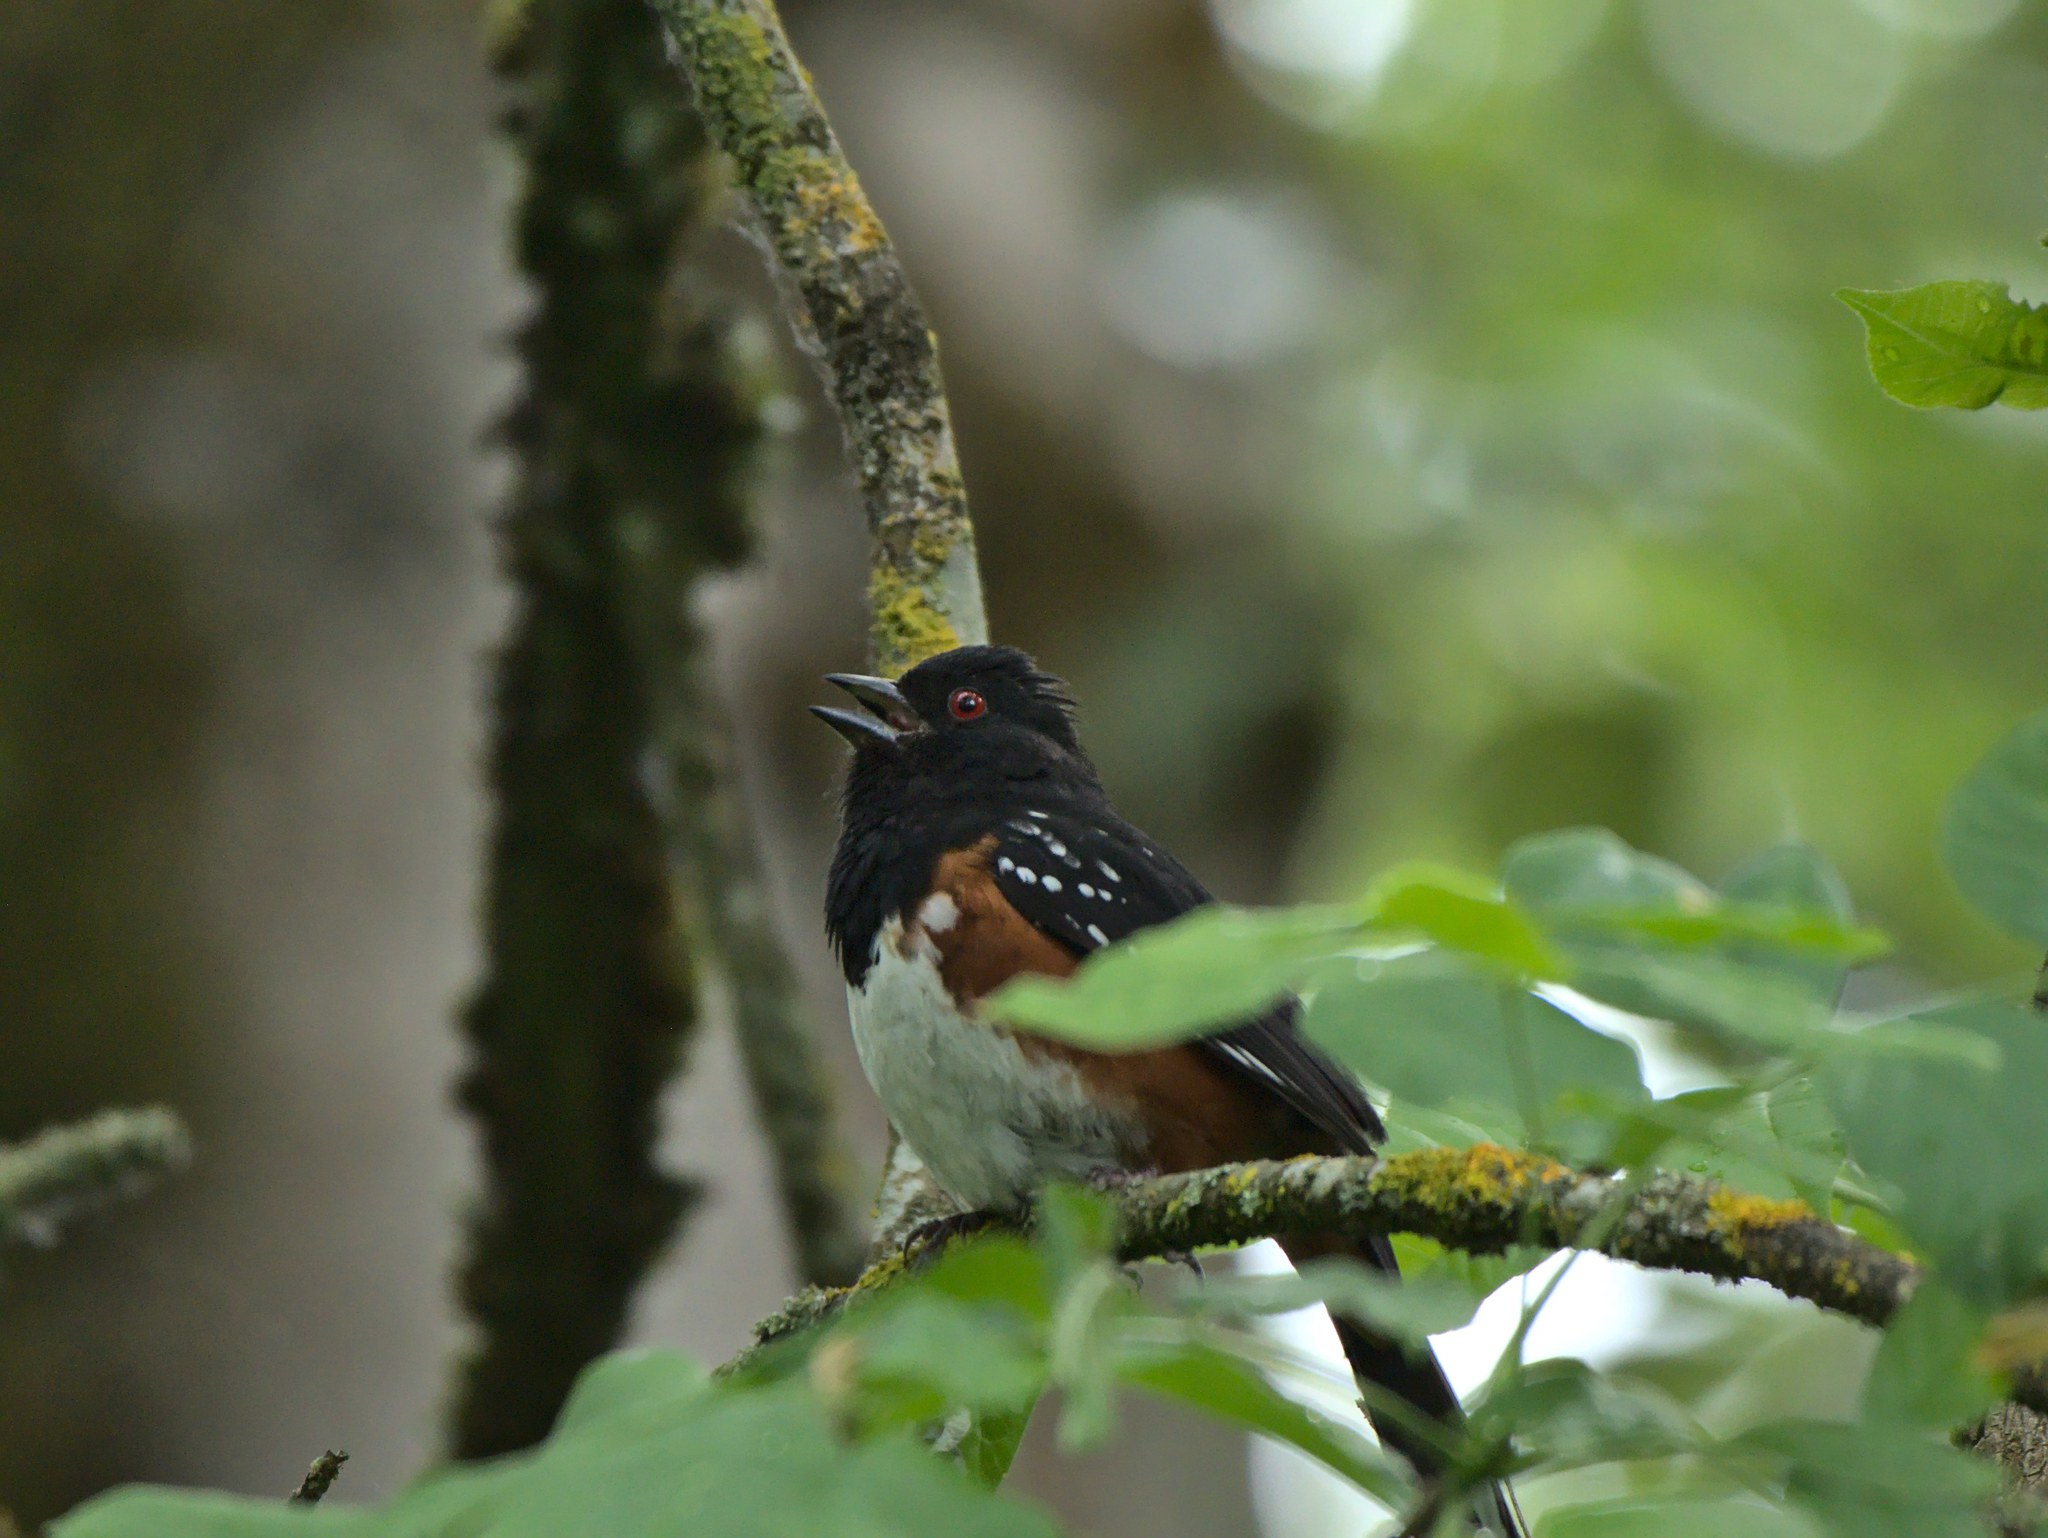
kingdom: Animalia
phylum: Chordata
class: Aves
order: Passeriformes
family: Passerellidae
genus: Pipilo
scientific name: Pipilo maculatus
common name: Spotted towhee
